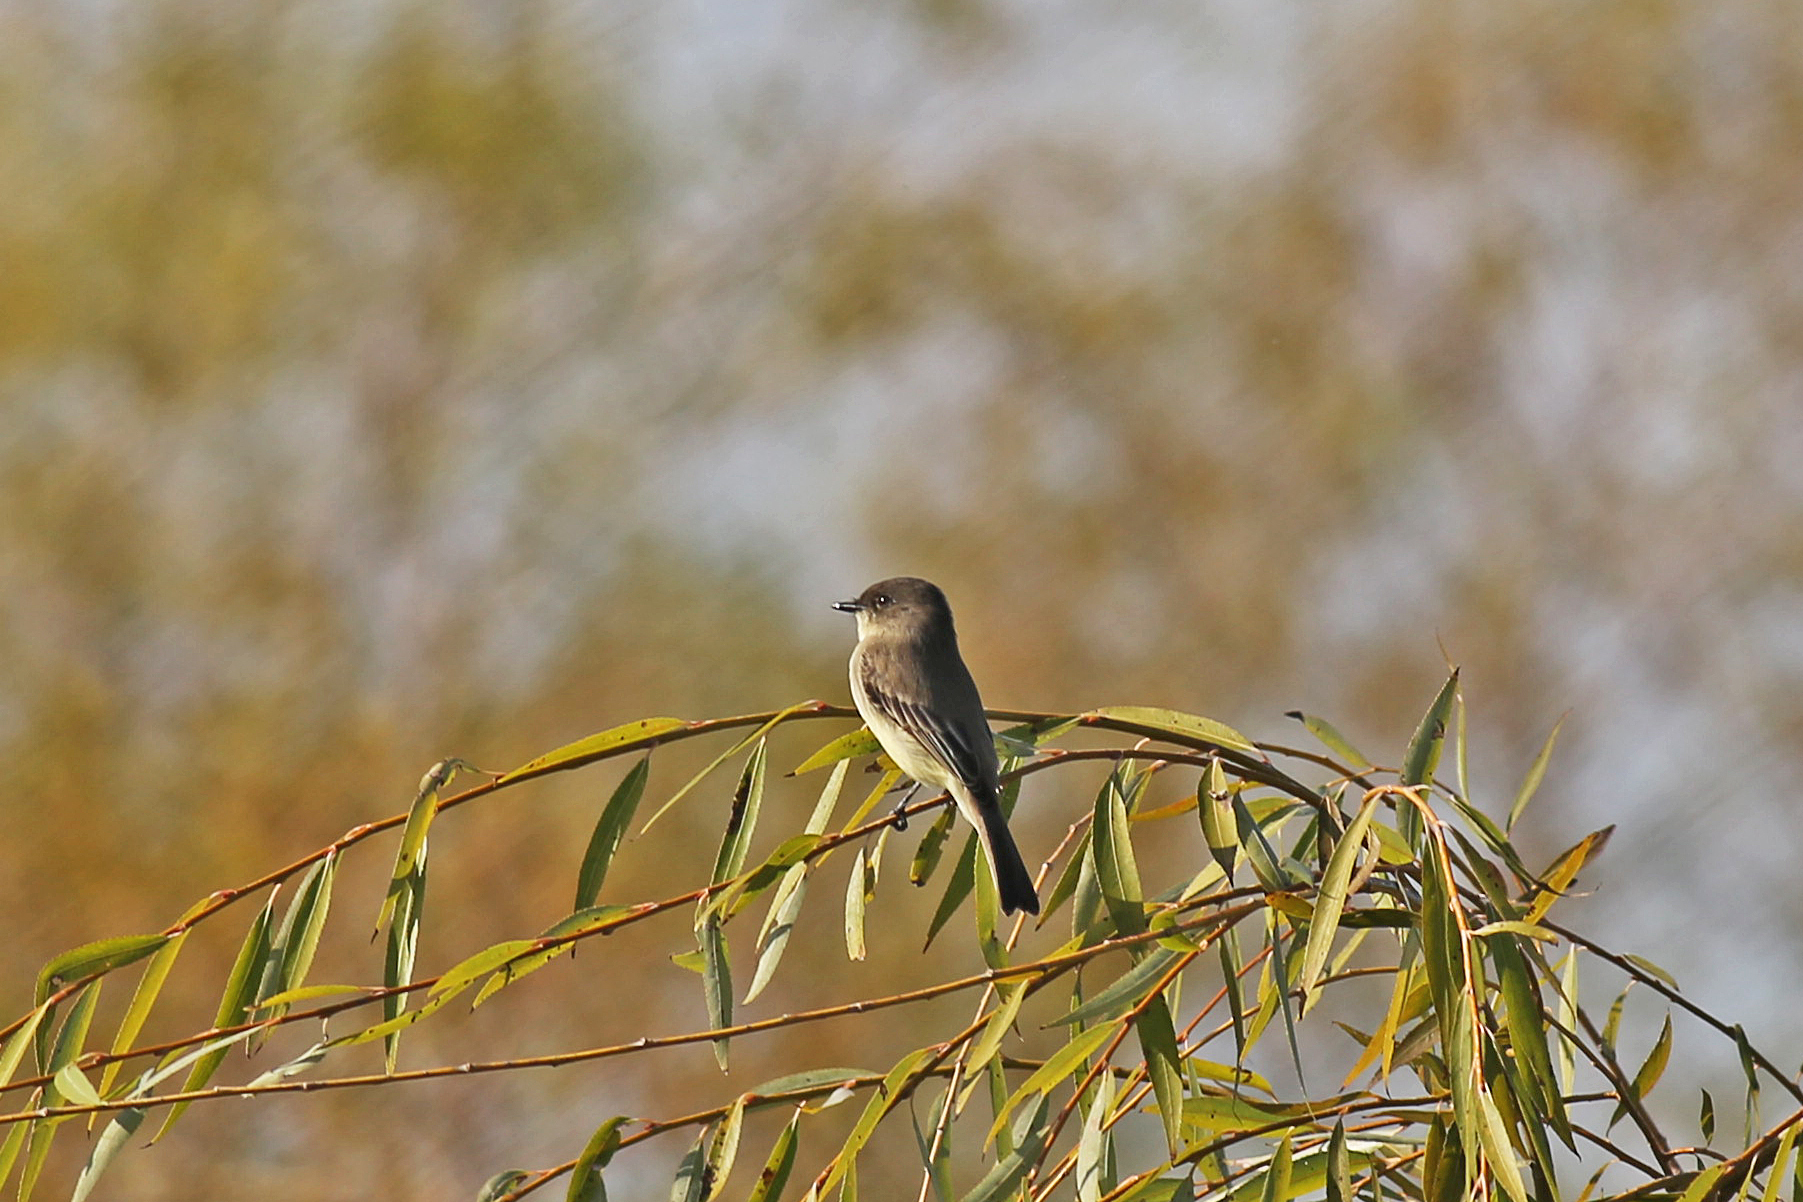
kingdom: Animalia
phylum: Chordata
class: Aves
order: Passeriformes
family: Tyrannidae
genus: Sayornis
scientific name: Sayornis phoebe
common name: Eastern phoebe
